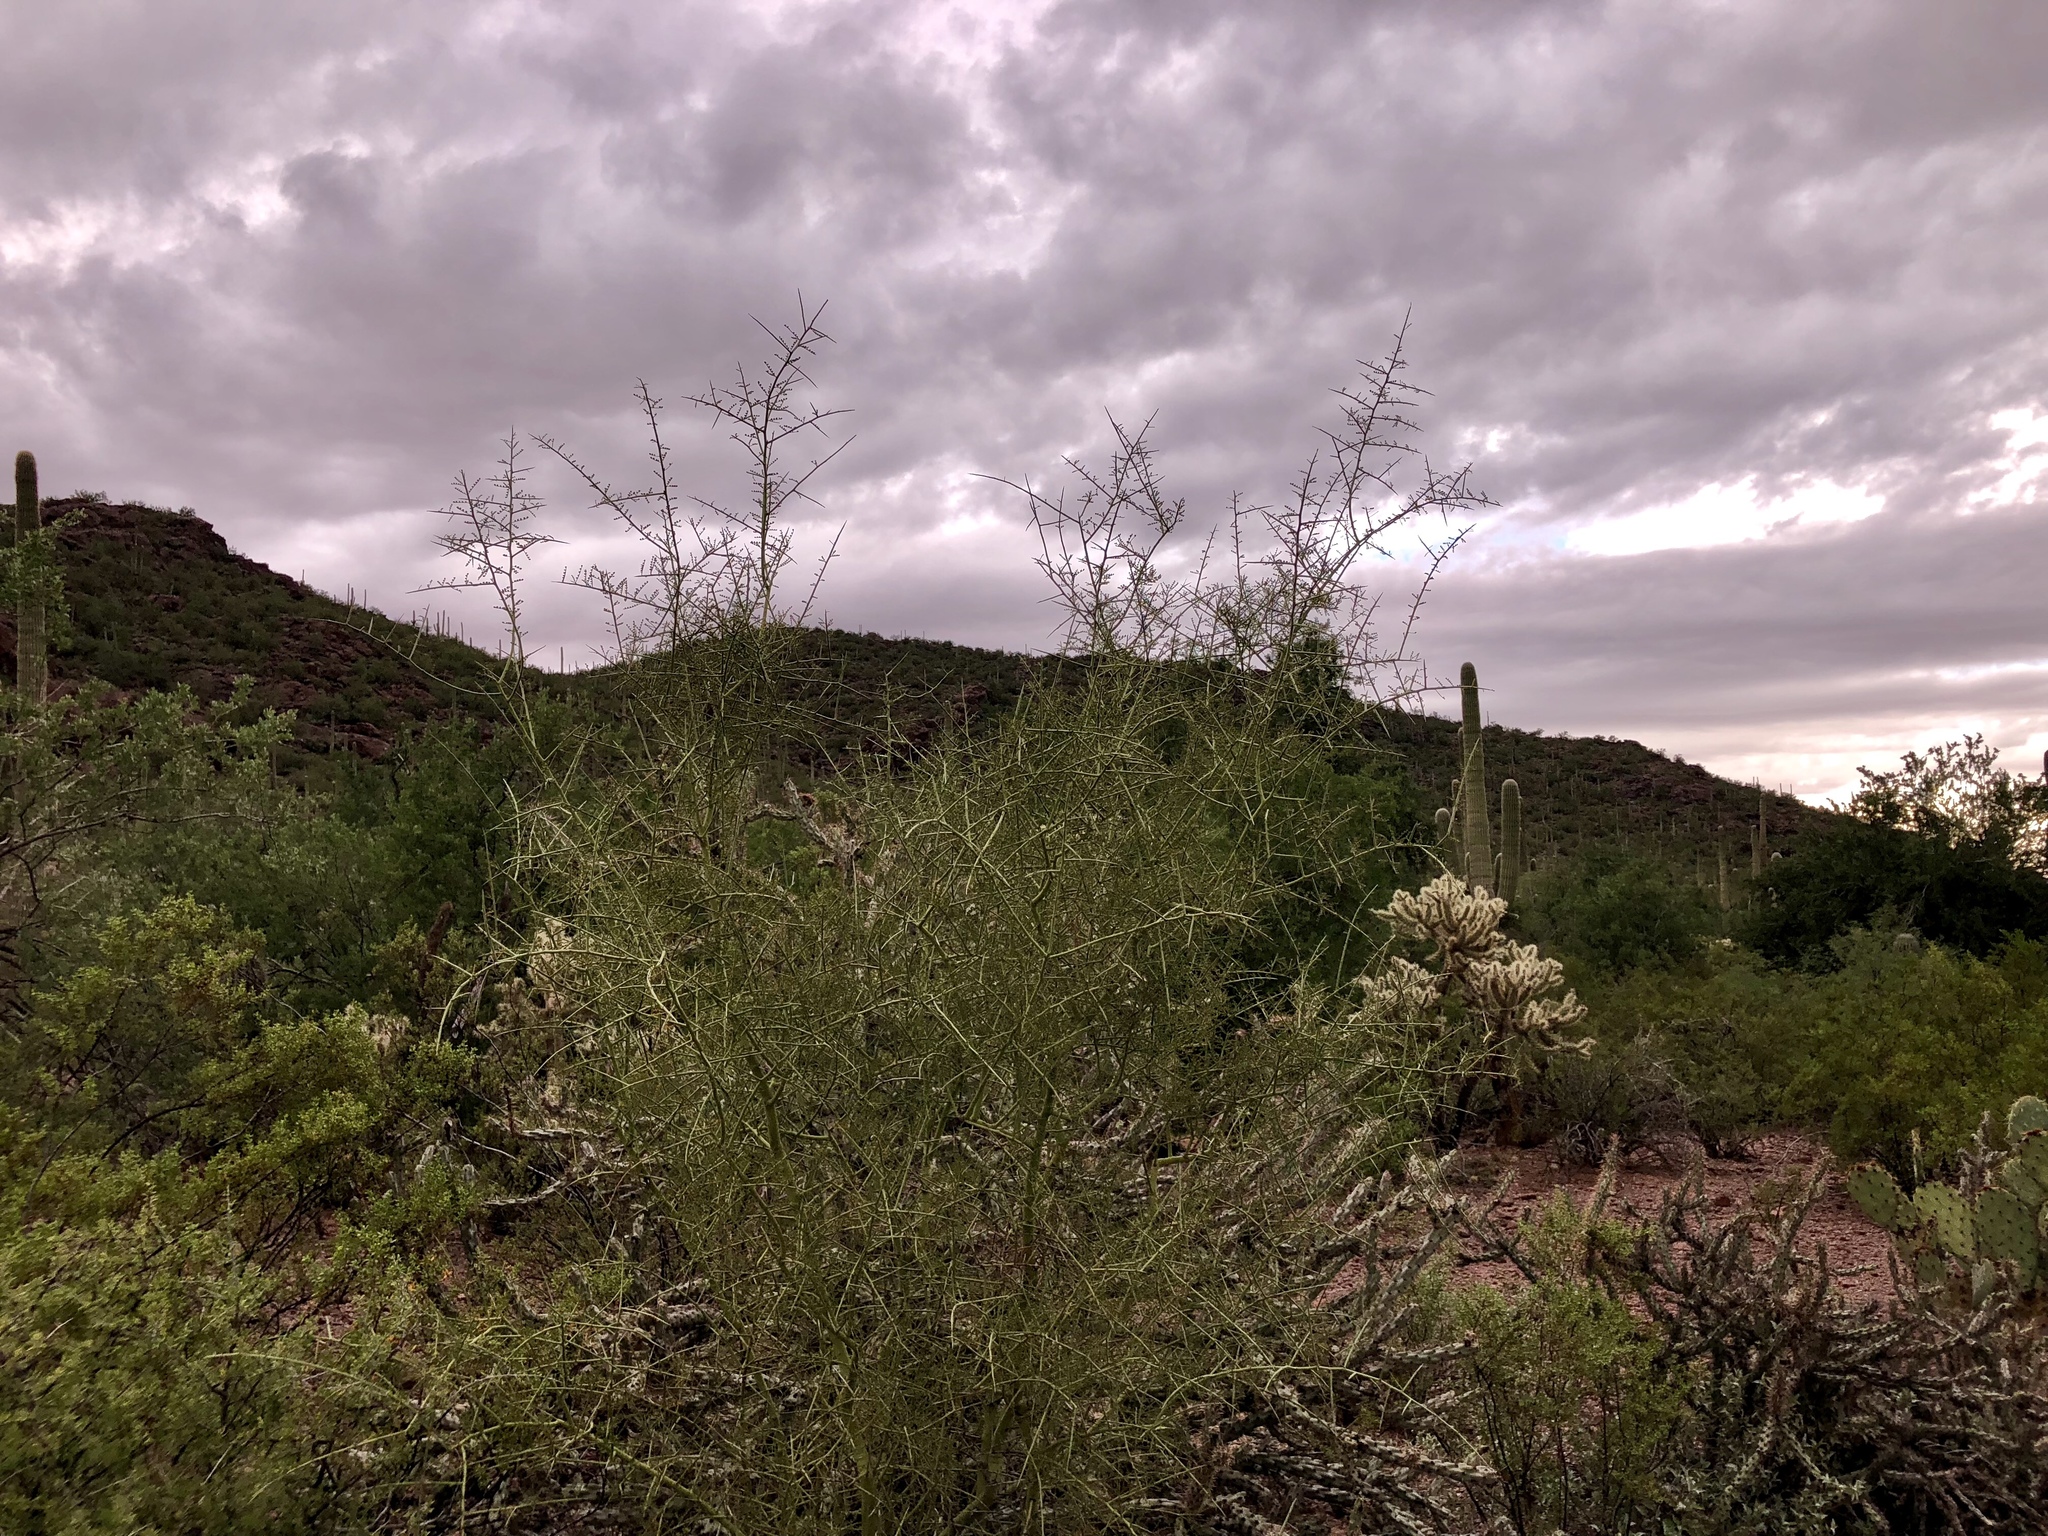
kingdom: Plantae
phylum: Tracheophyta
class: Magnoliopsida
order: Fabales
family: Fabaceae
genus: Parkinsonia
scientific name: Parkinsonia microphylla
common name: Yellow paloverde
